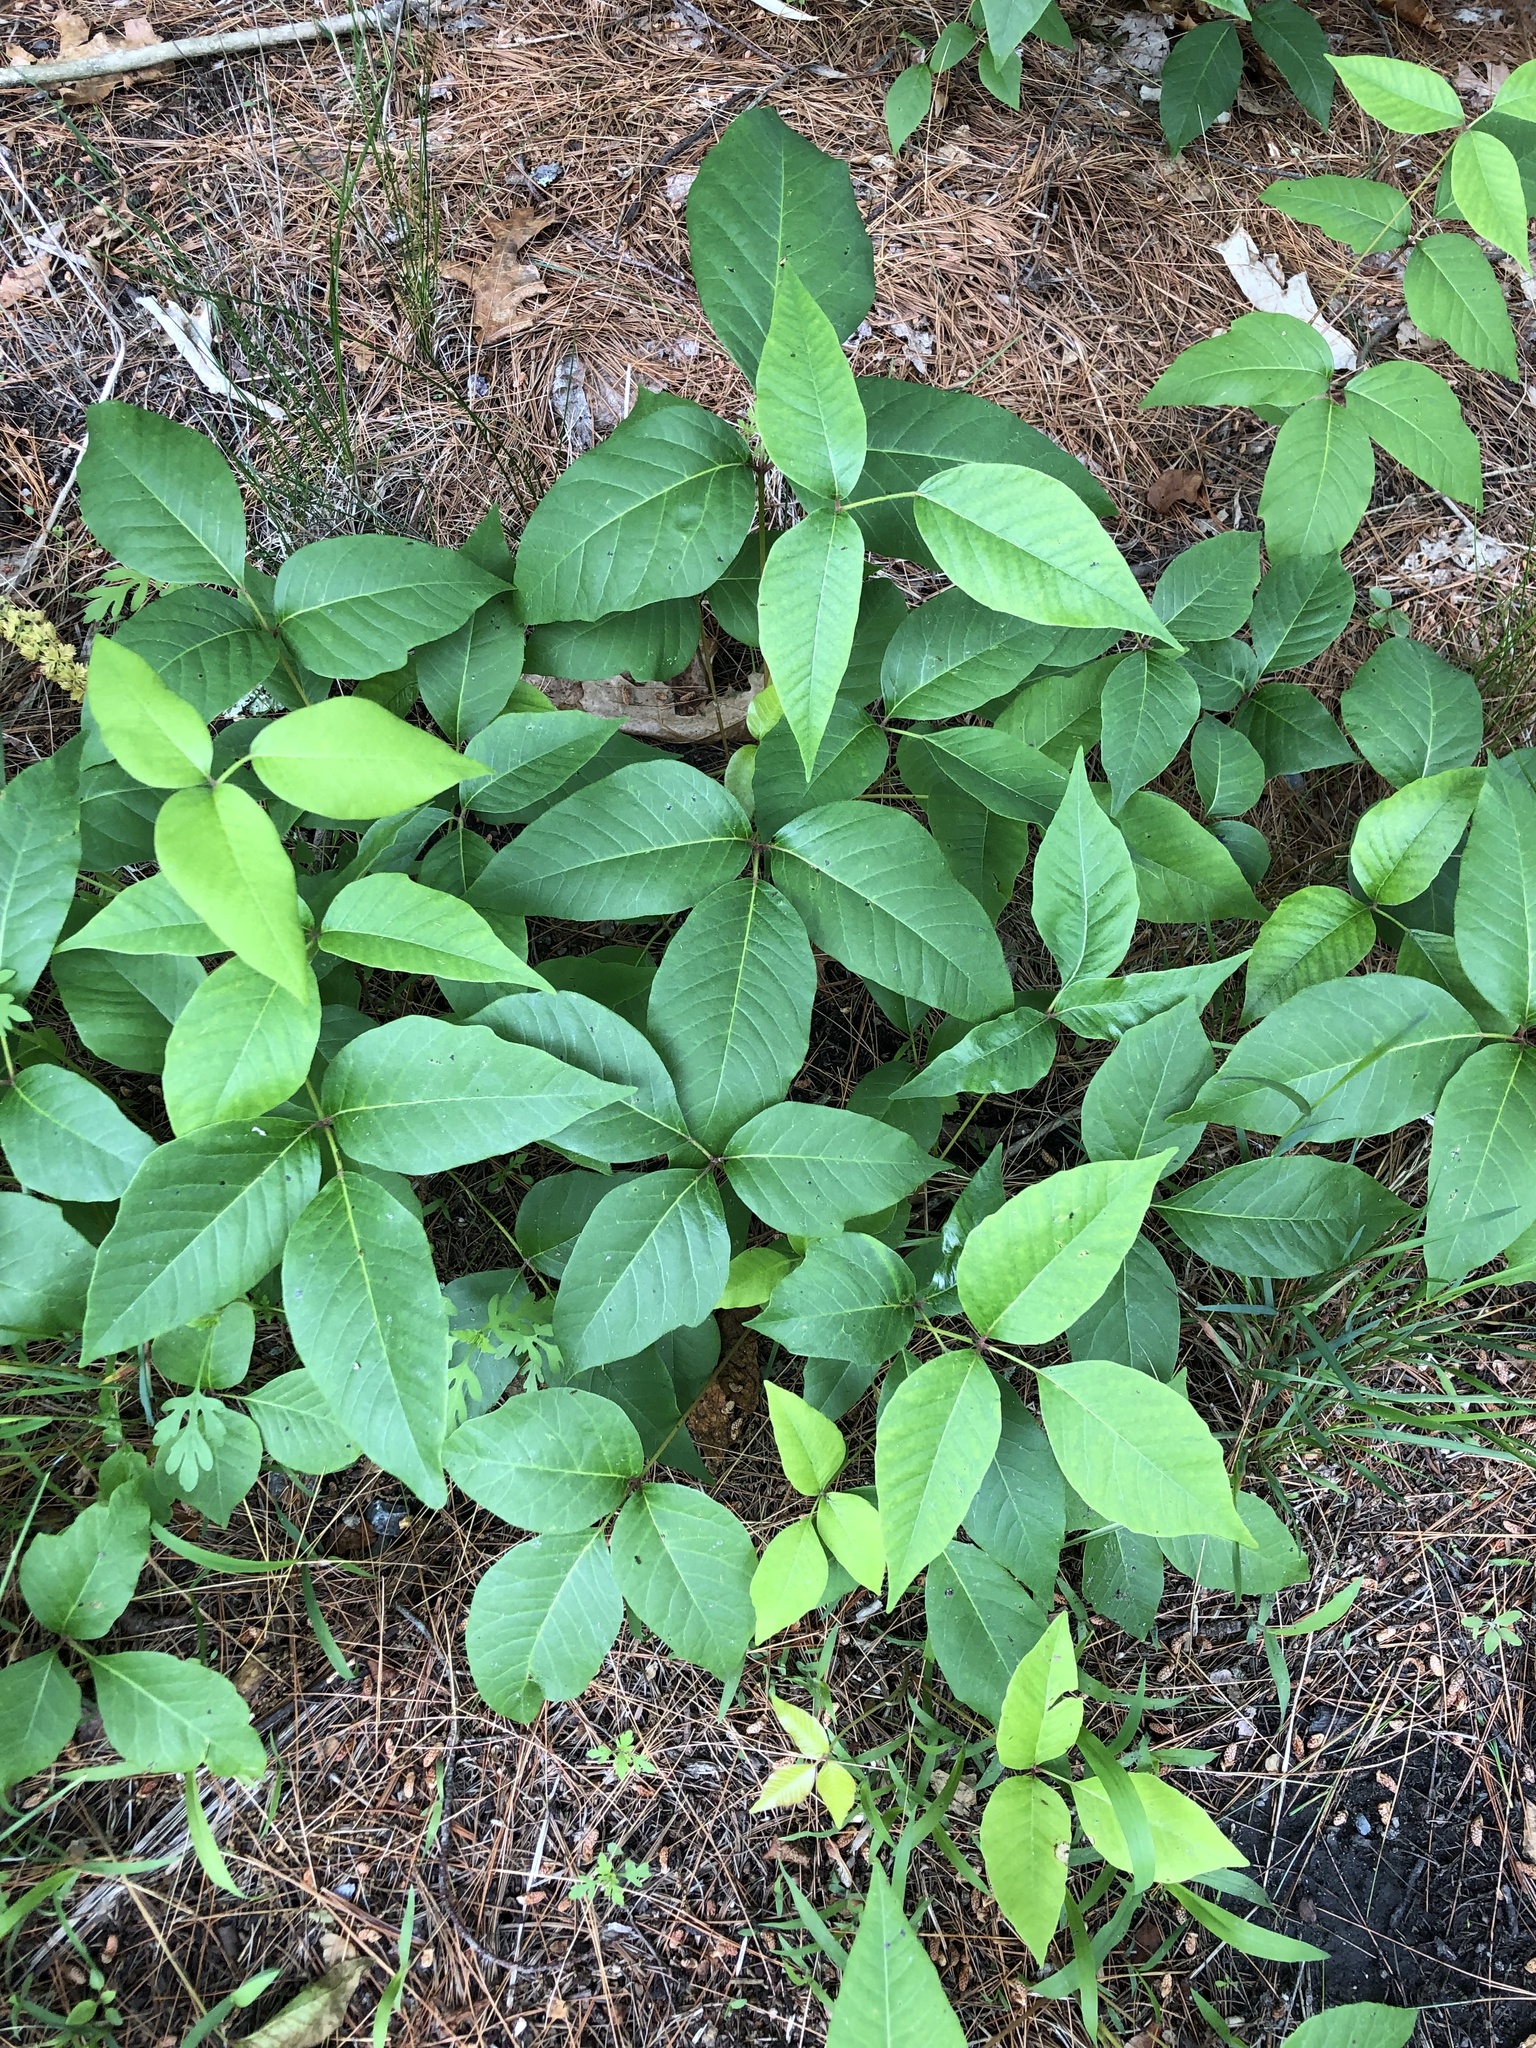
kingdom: Plantae
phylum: Tracheophyta
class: Magnoliopsida
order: Sapindales
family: Anacardiaceae
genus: Toxicodendron
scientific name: Toxicodendron radicans
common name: Poison ivy
